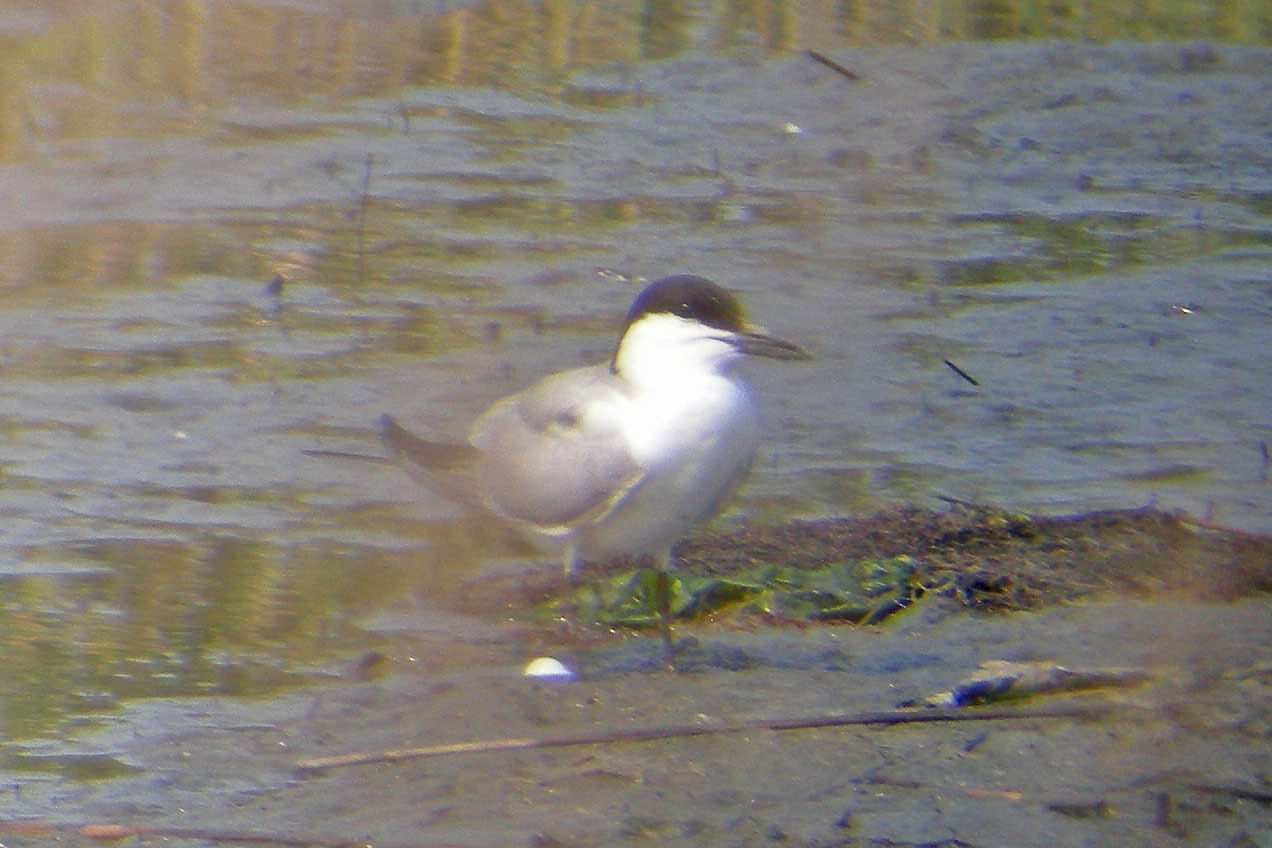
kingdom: Animalia
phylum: Chordata
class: Aves
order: Charadriiformes
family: Laridae
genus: Gelochelidon
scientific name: Gelochelidon nilotica
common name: Gull-billed tern
